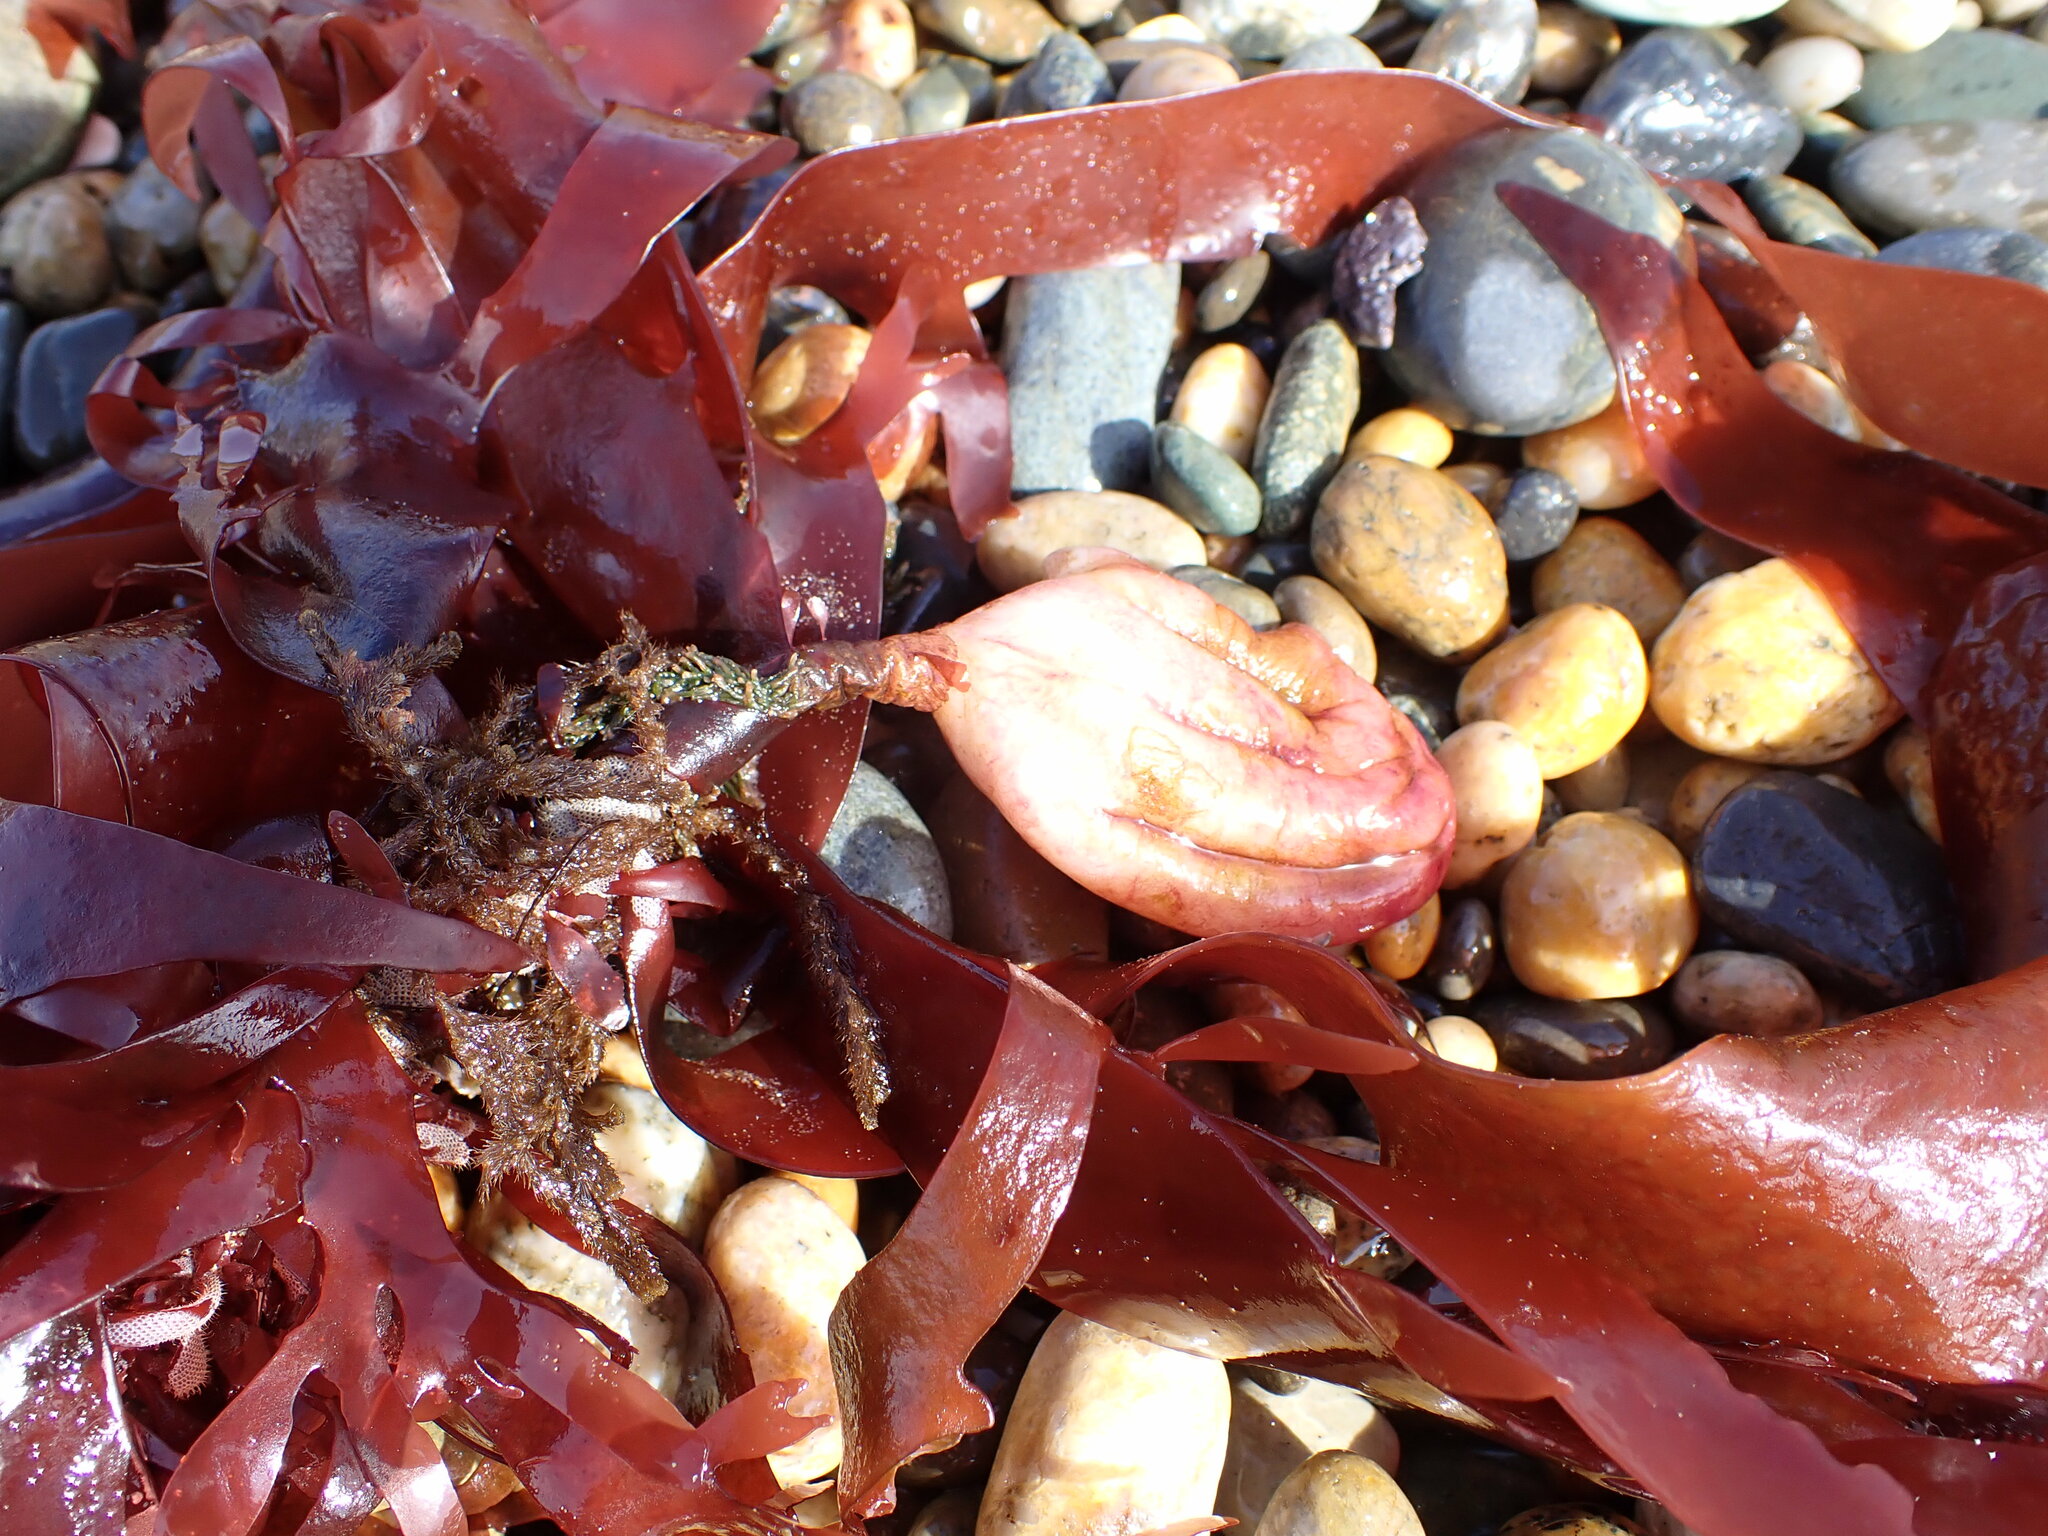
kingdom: Animalia
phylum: Chordata
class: Ascidiacea
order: Stolidobranchia
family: Pyuridae
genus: Pyura
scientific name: Pyura pachydermatina
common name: Sea tulip
